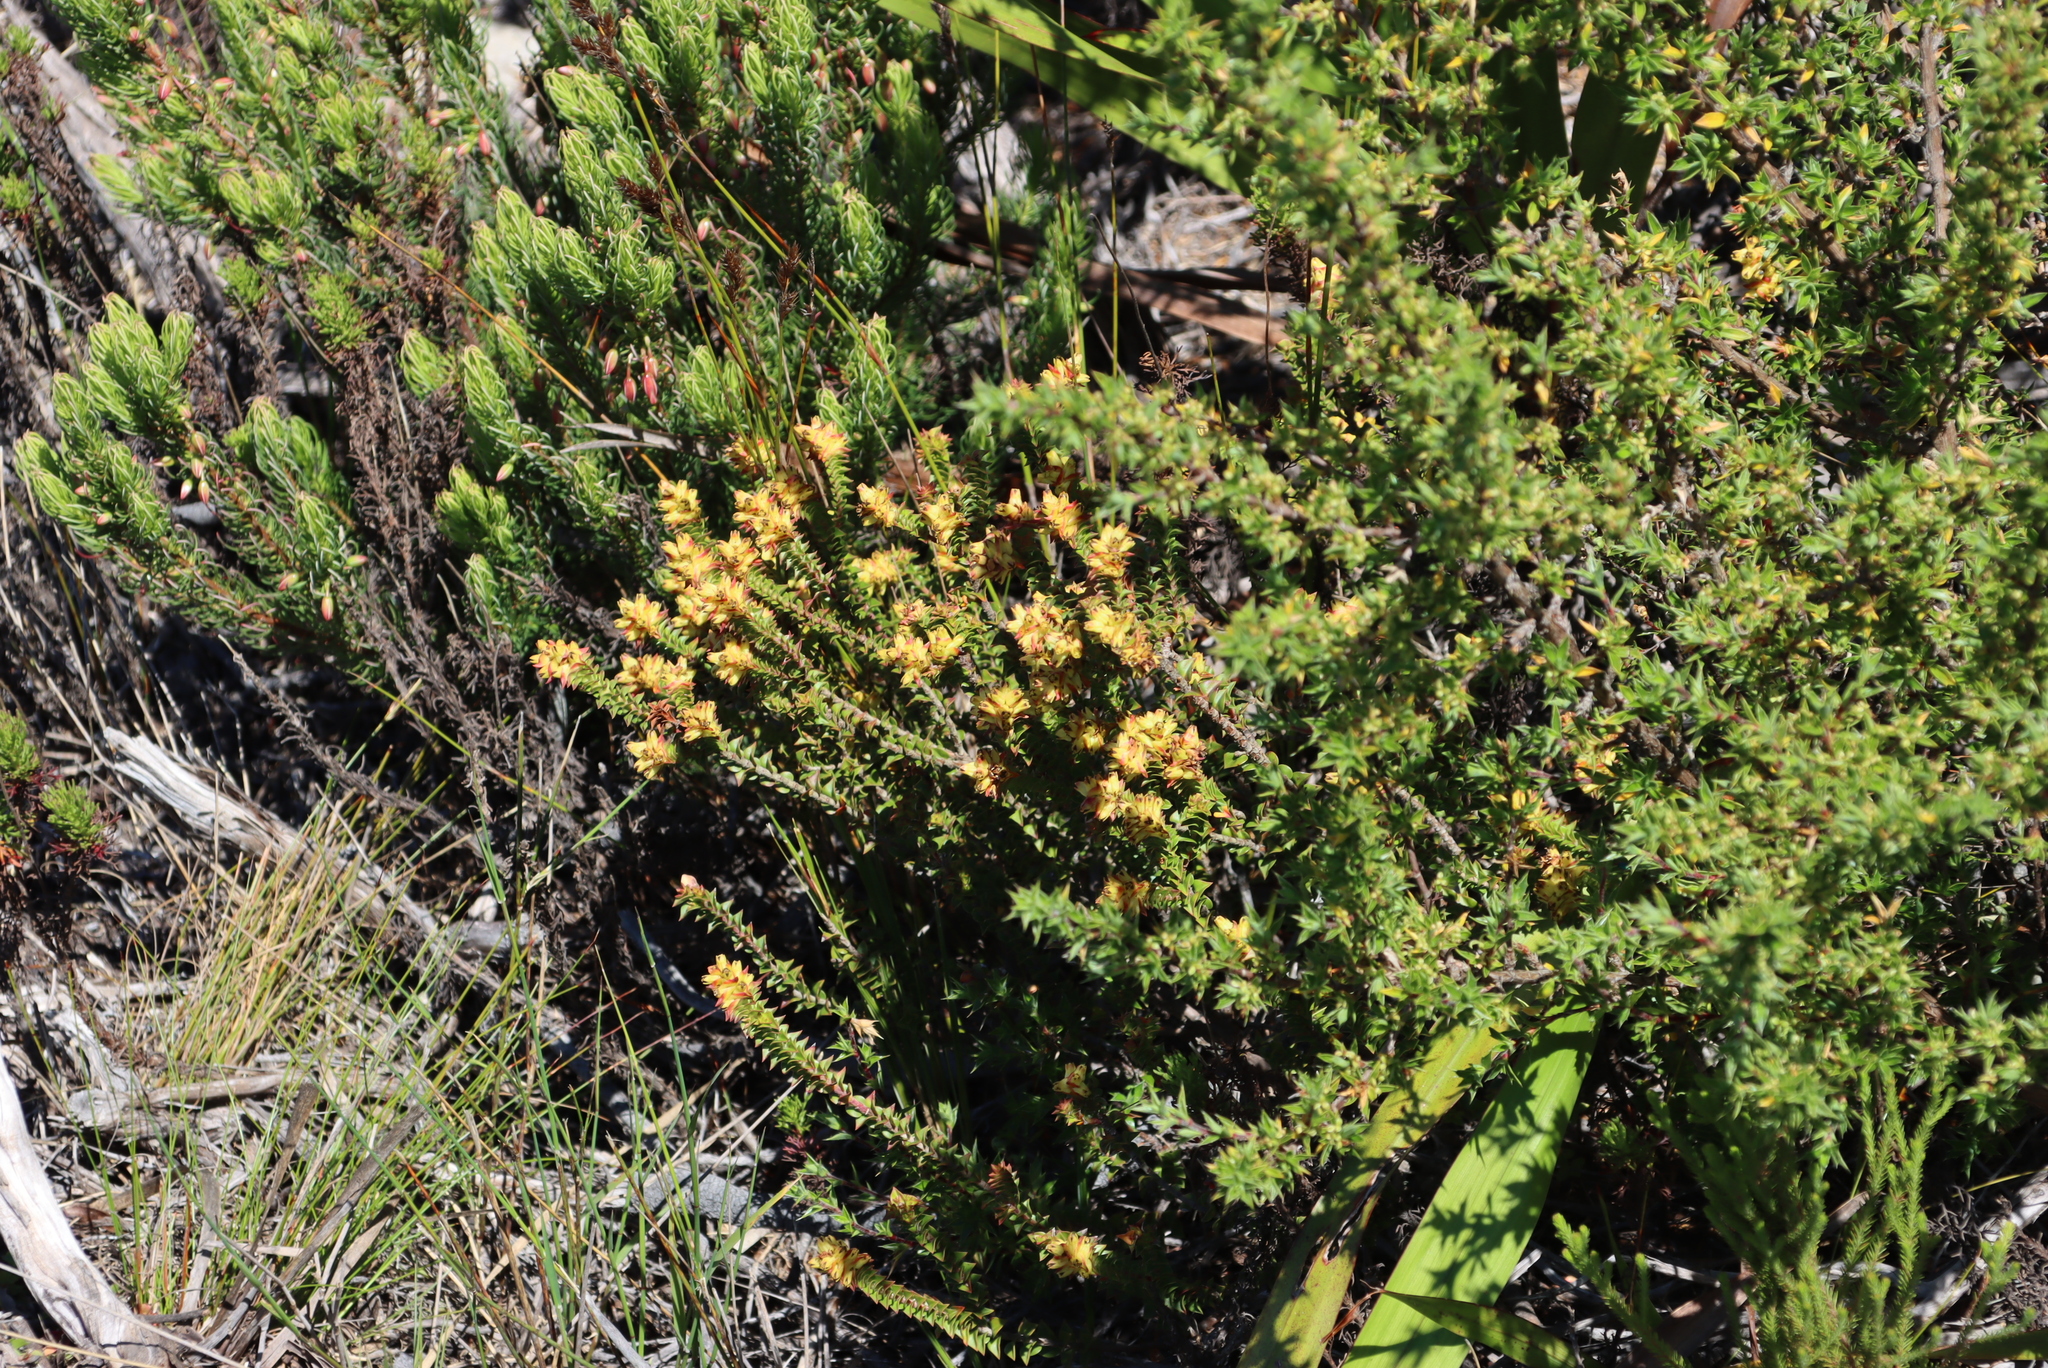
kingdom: Plantae
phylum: Tracheophyta
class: Magnoliopsida
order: Myrtales
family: Penaeaceae
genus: Penaea
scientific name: Penaea mucronata
